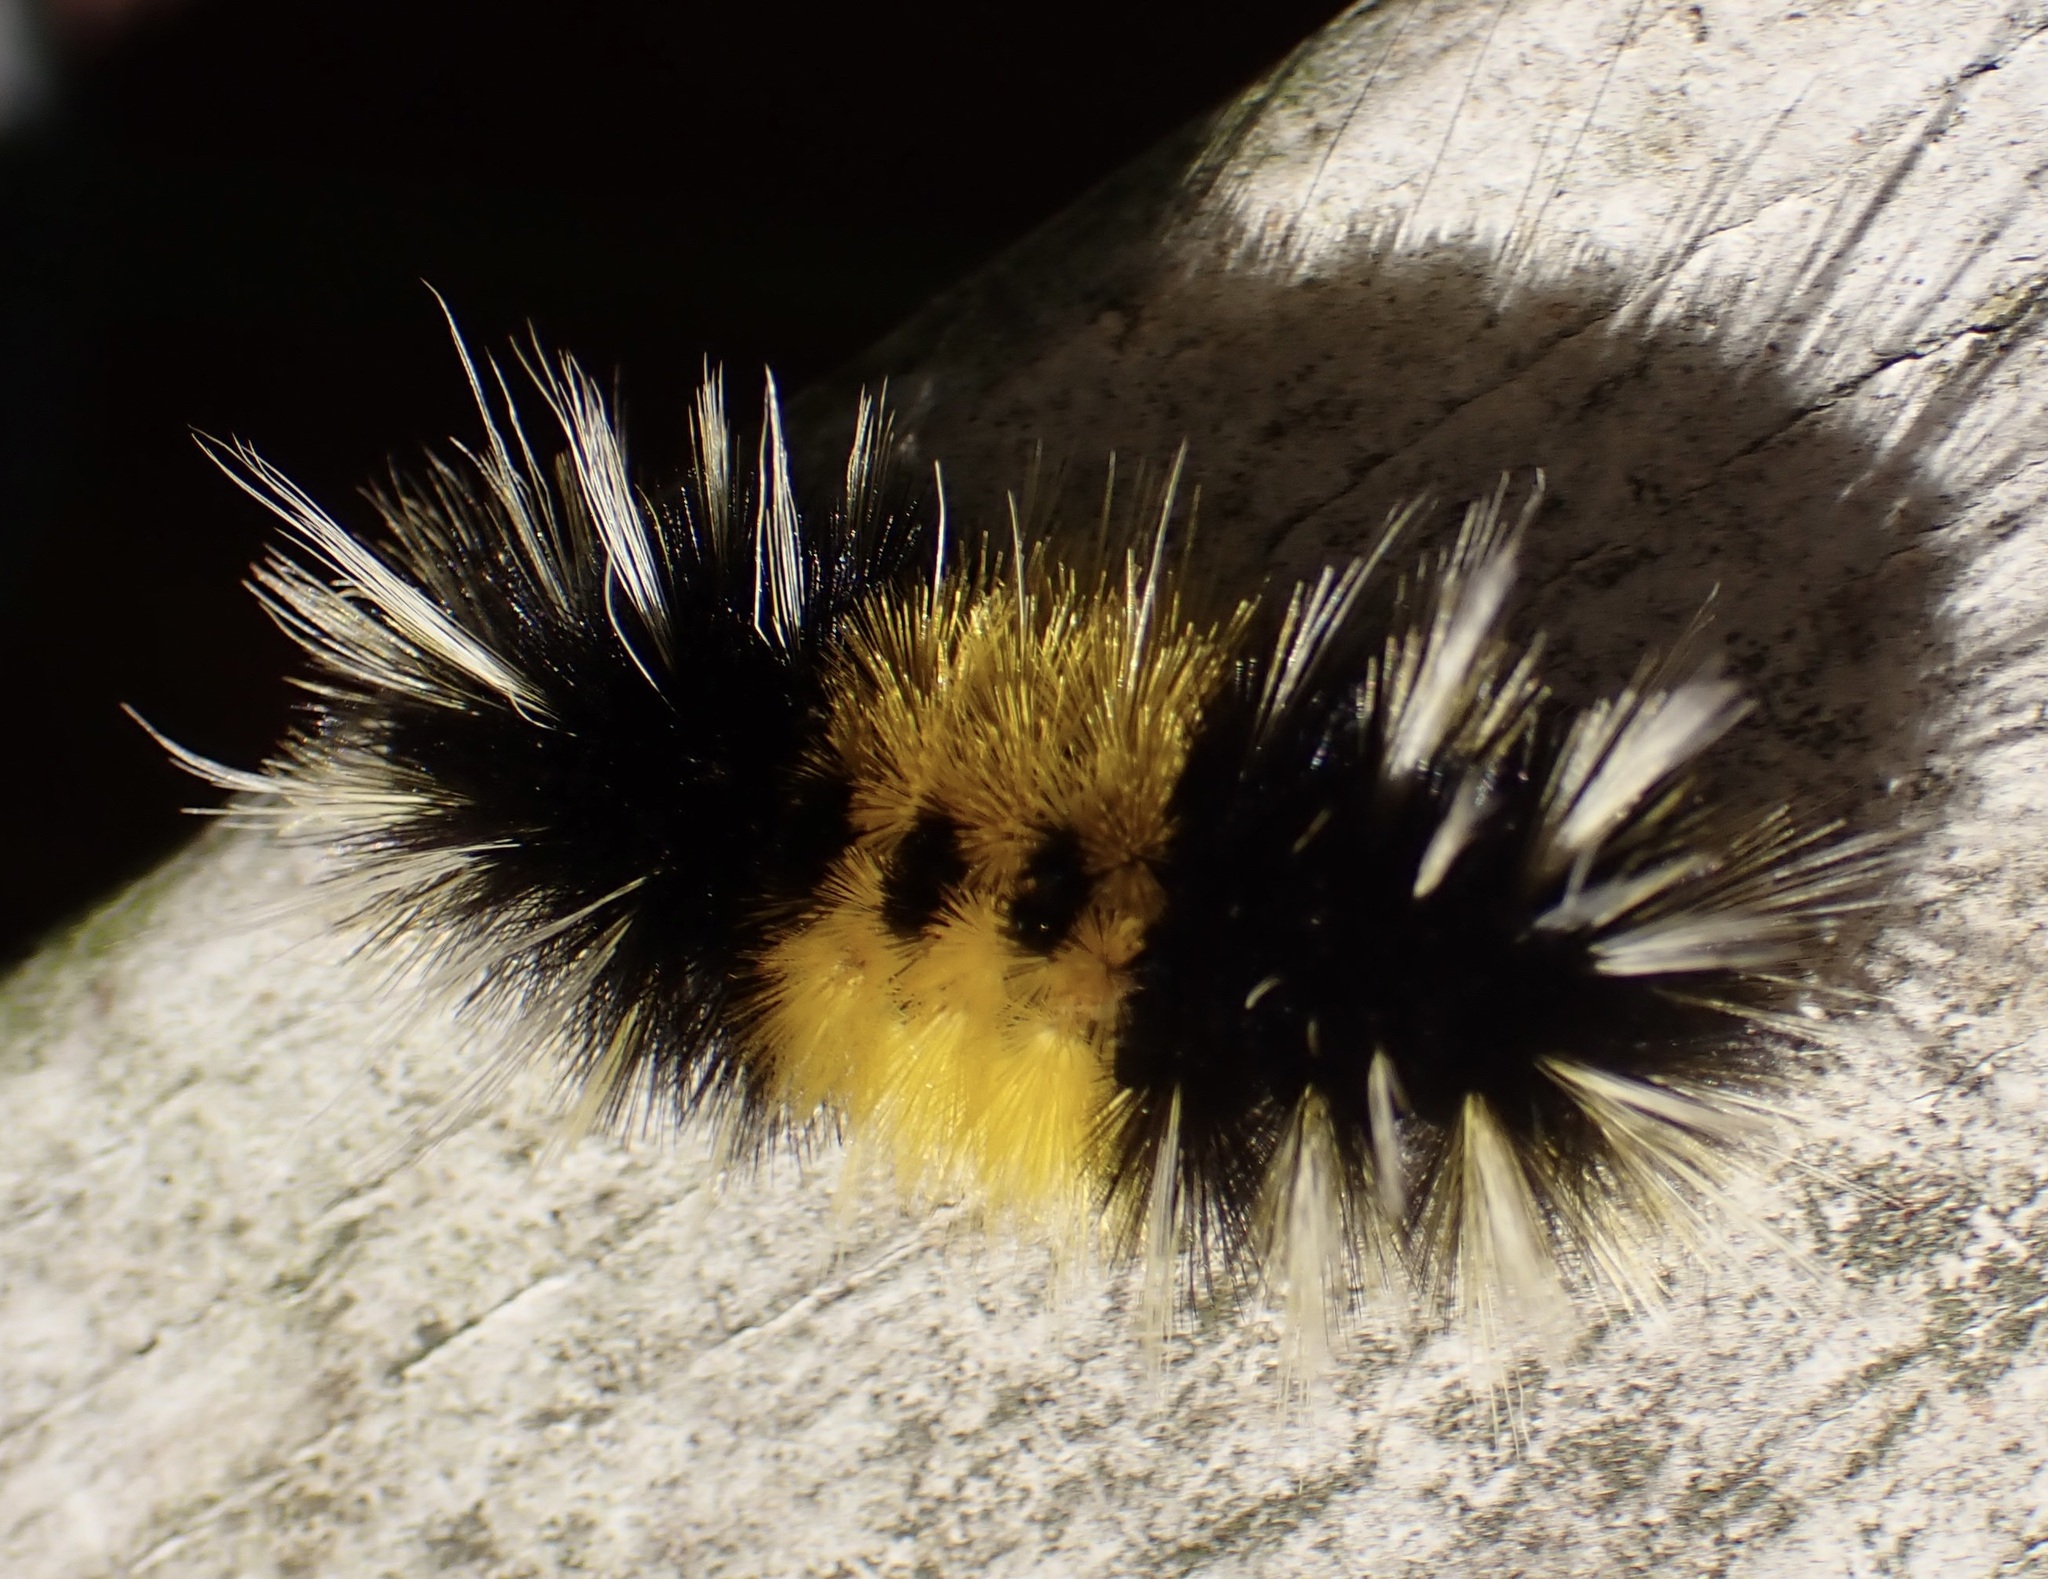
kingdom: Animalia
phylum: Arthropoda
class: Insecta
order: Lepidoptera
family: Erebidae
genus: Lophocampa
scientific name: Lophocampa maculata
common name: Spotted tussock moth
